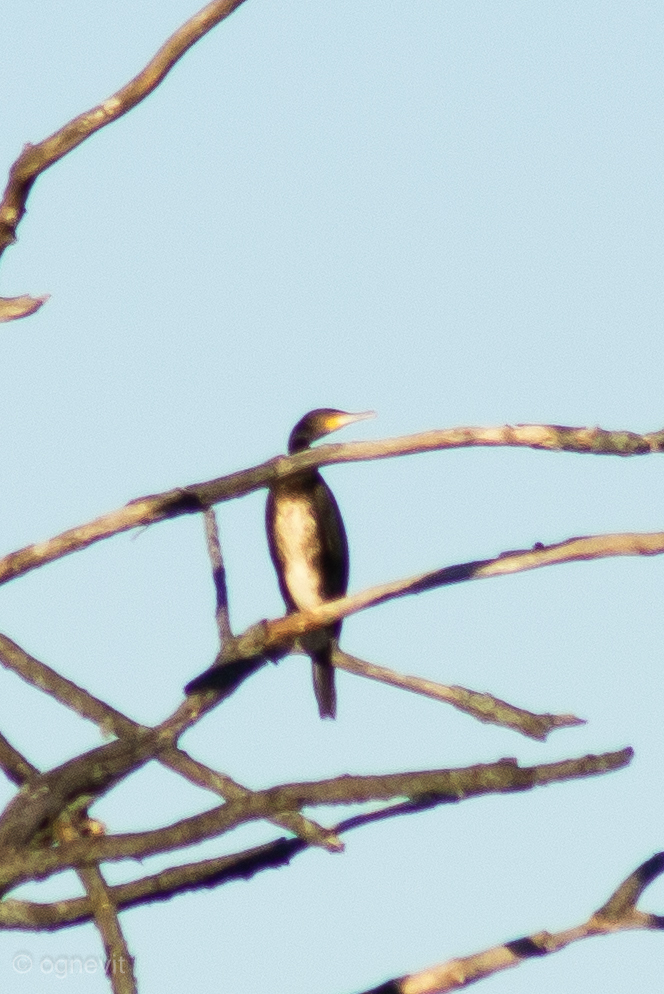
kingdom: Animalia
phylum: Chordata
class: Aves
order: Suliformes
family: Phalacrocoracidae
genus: Phalacrocorax
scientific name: Phalacrocorax carbo
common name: Great cormorant
